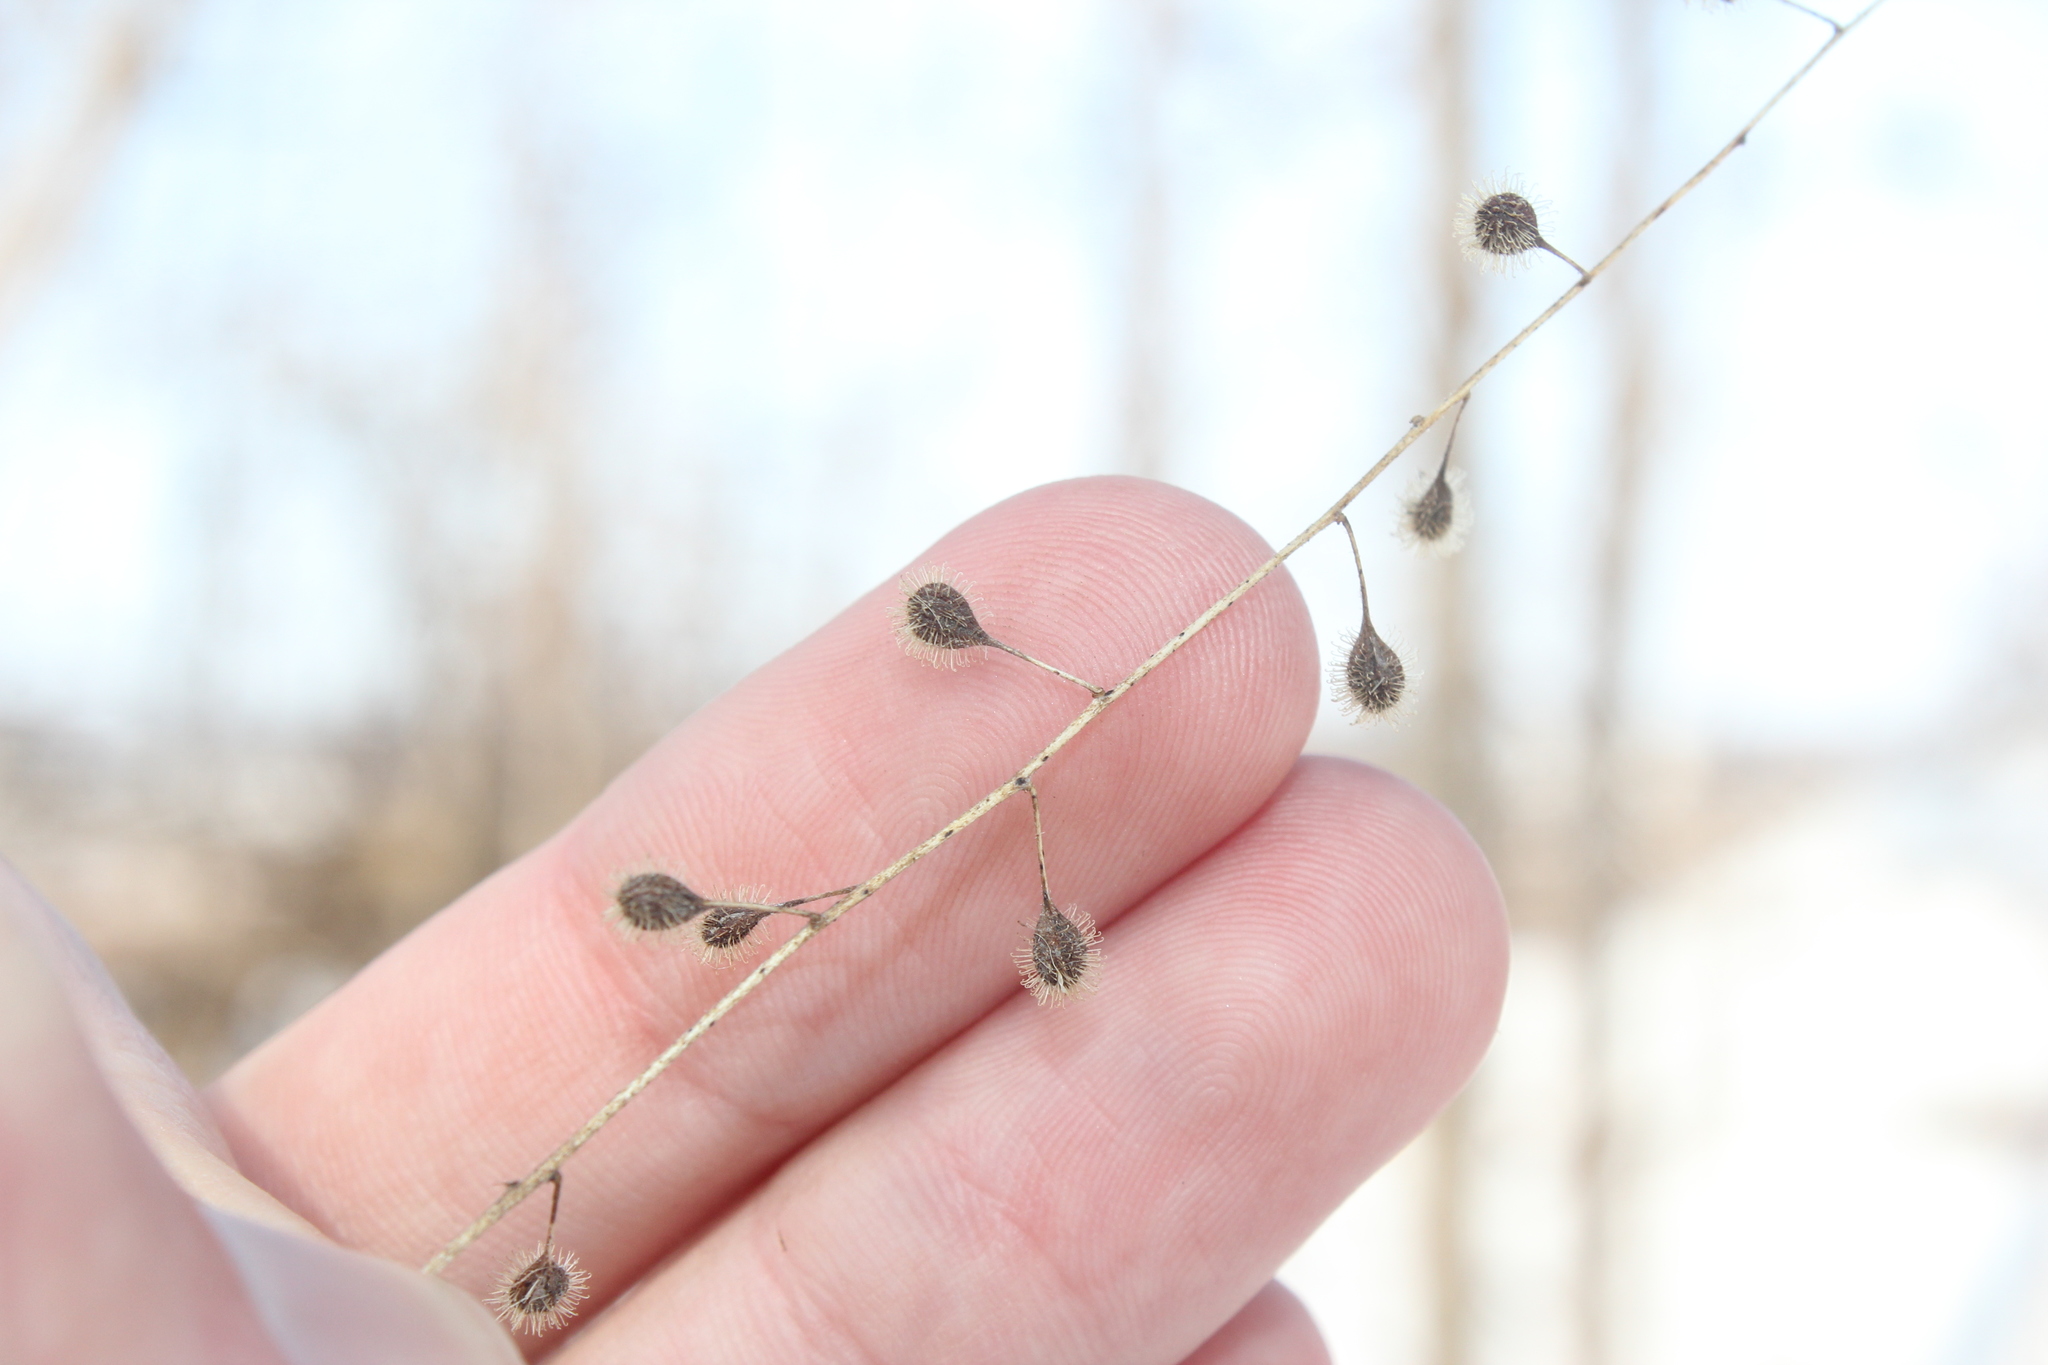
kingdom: Plantae
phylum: Tracheophyta
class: Magnoliopsida
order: Myrtales
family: Onagraceae
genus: Circaea
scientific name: Circaea canadensis
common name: Broad-leaved enchanter's nightshade
